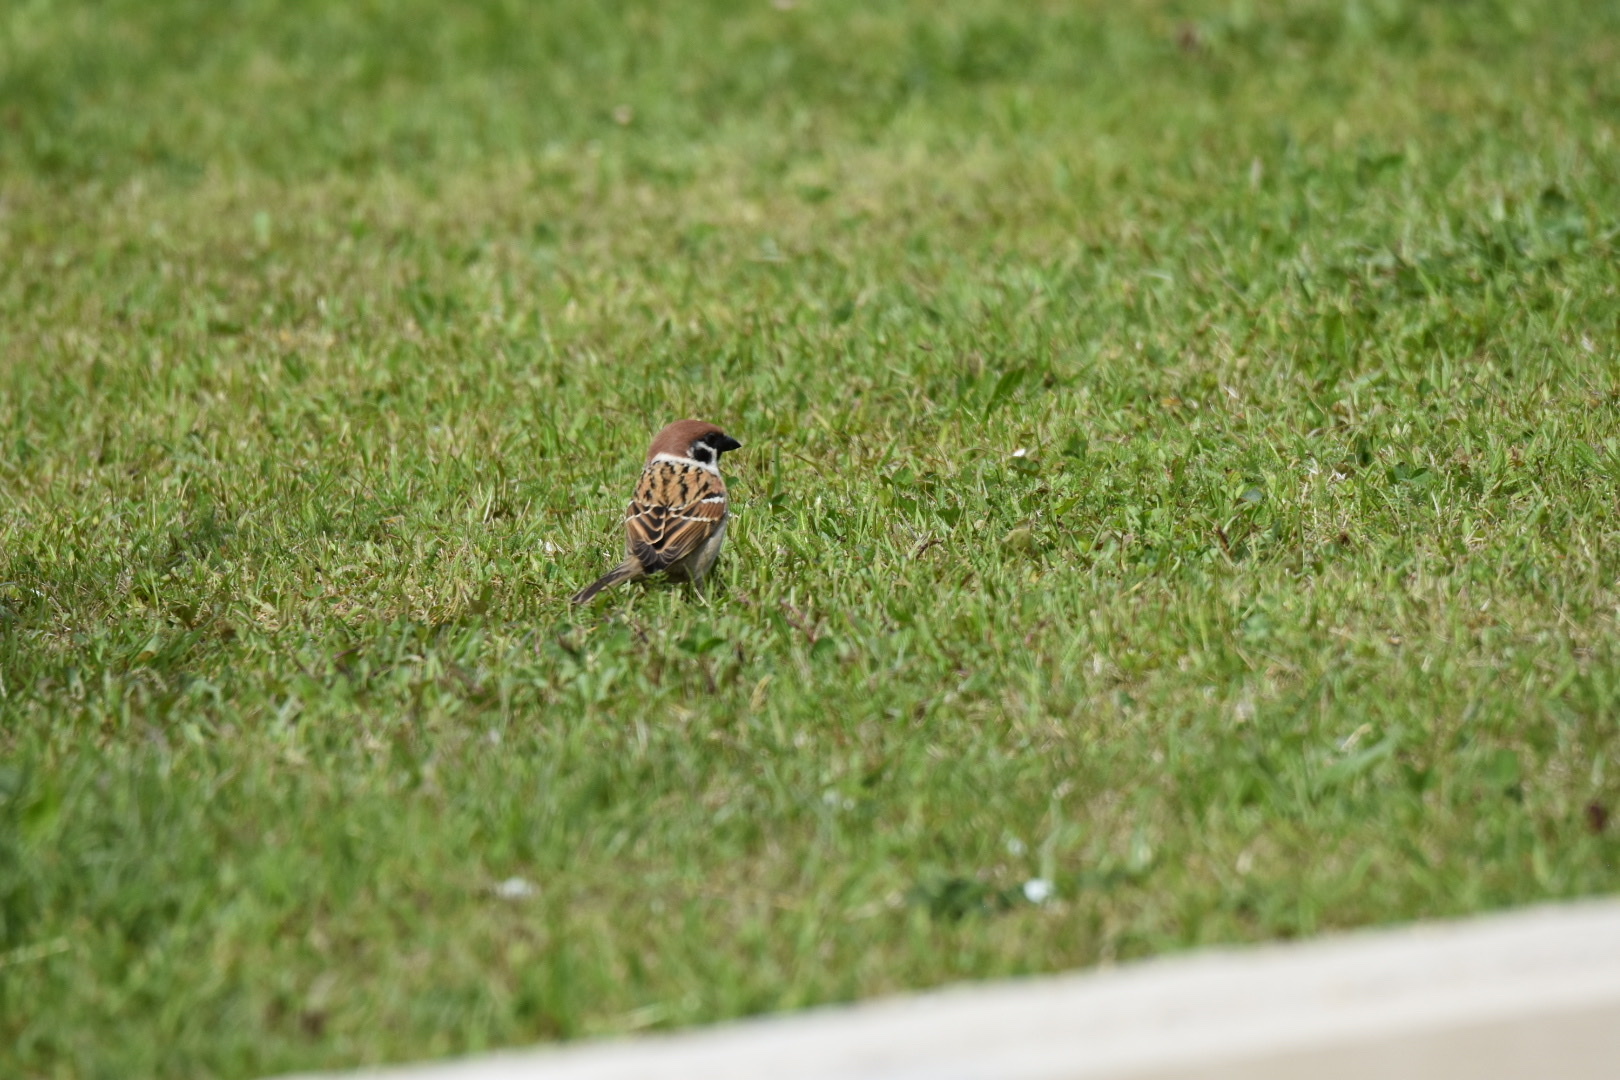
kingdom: Animalia
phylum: Chordata
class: Aves
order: Passeriformes
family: Passeridae
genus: Passer
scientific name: Passer montanus
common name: Eurasian tree sparrow
